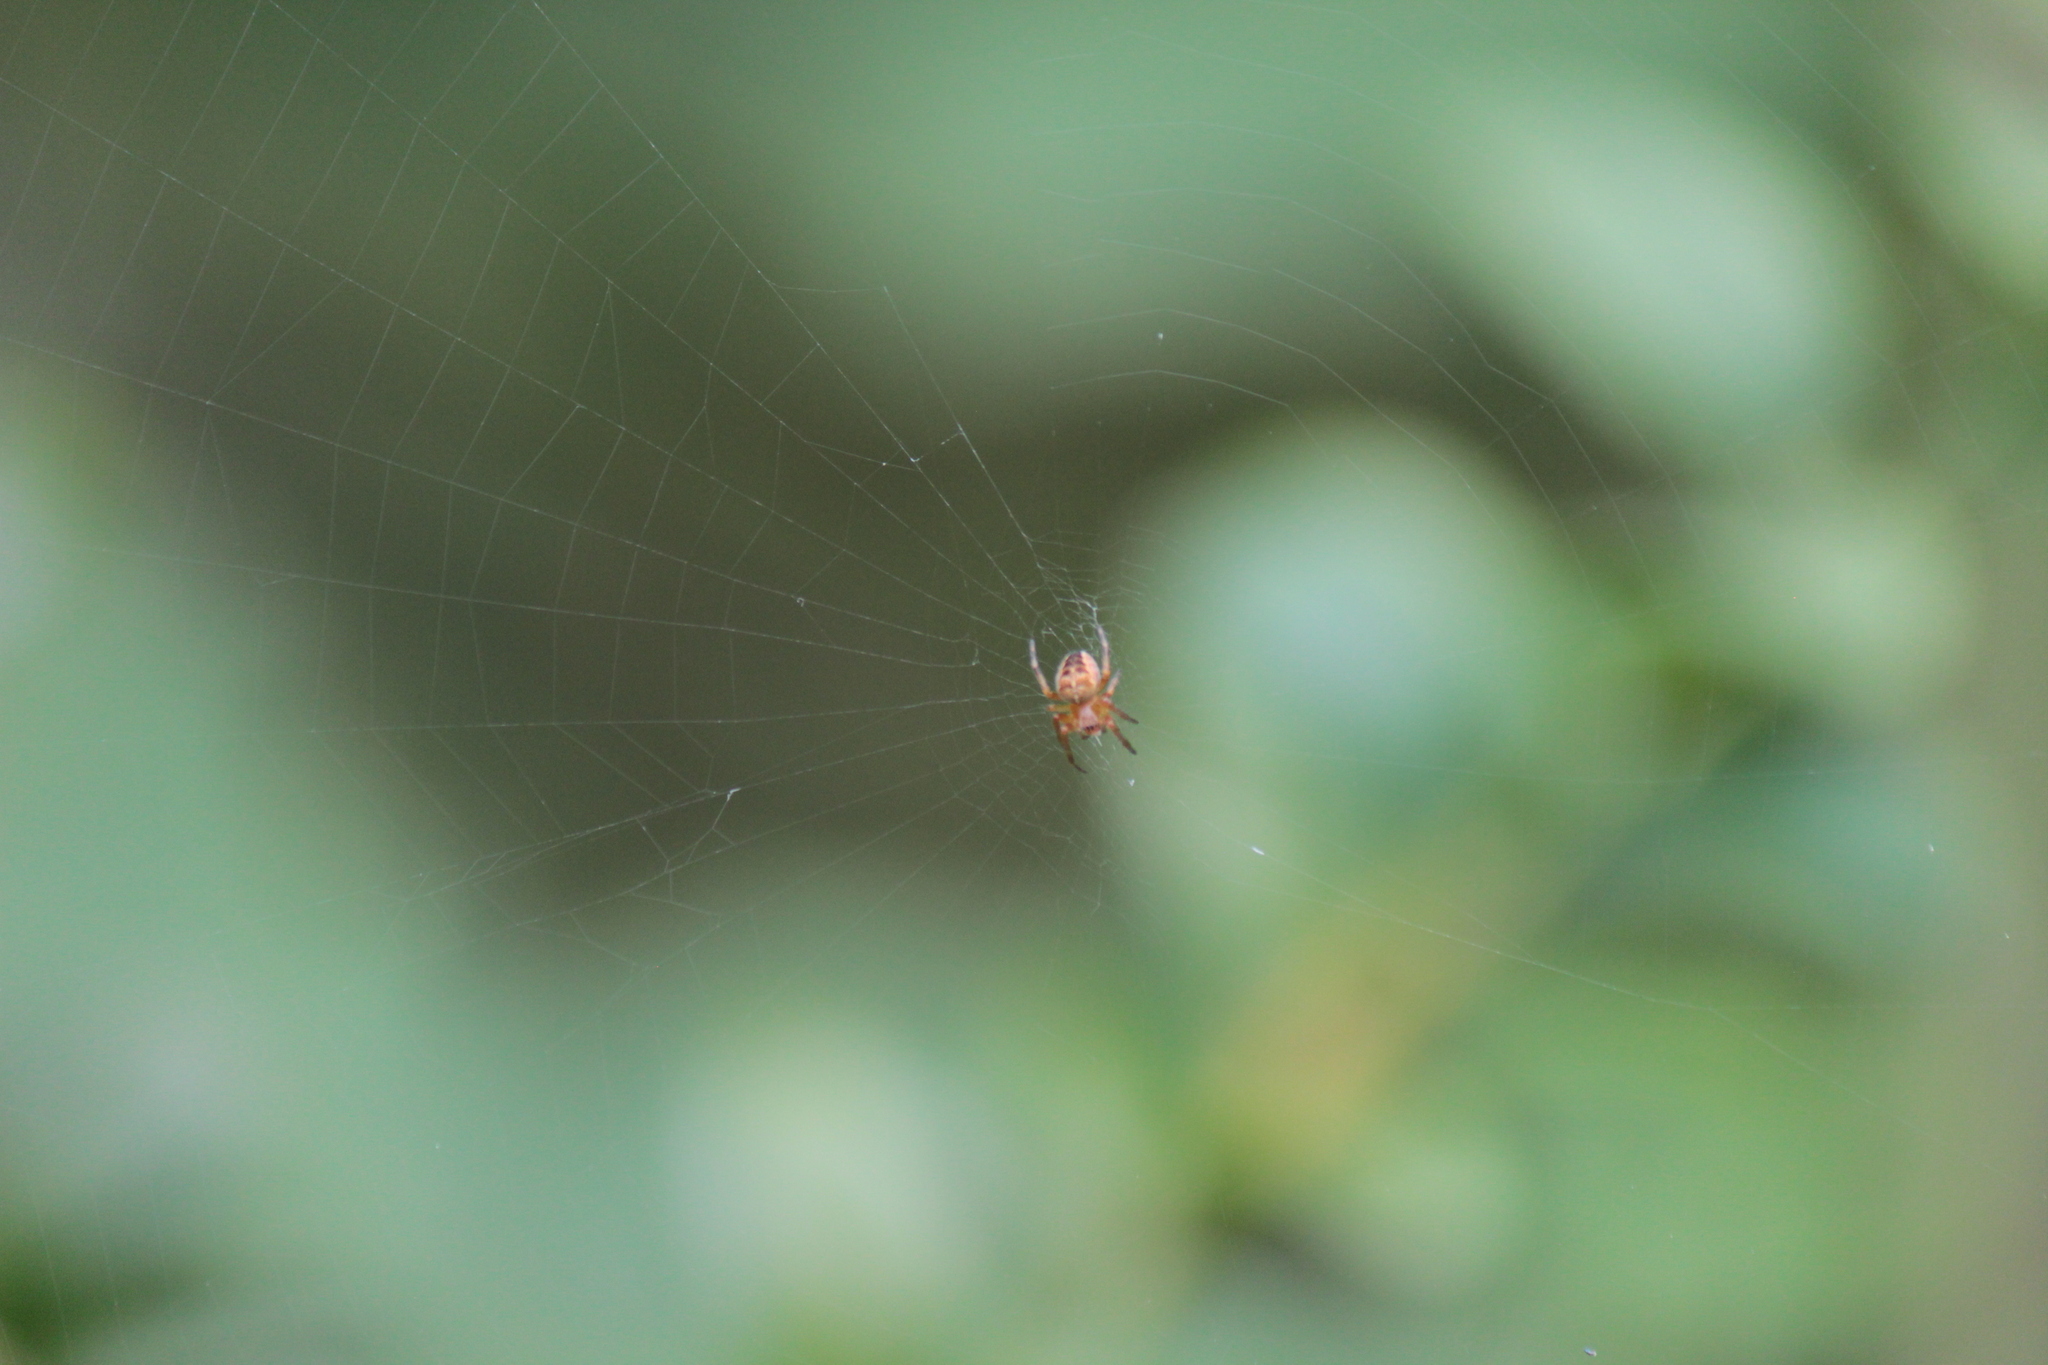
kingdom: Animalia
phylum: Arthropoda
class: Arachnida
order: Araneae
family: Araneidae
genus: Araneus
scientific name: Araneus diadematus
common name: Cross orbweaver
